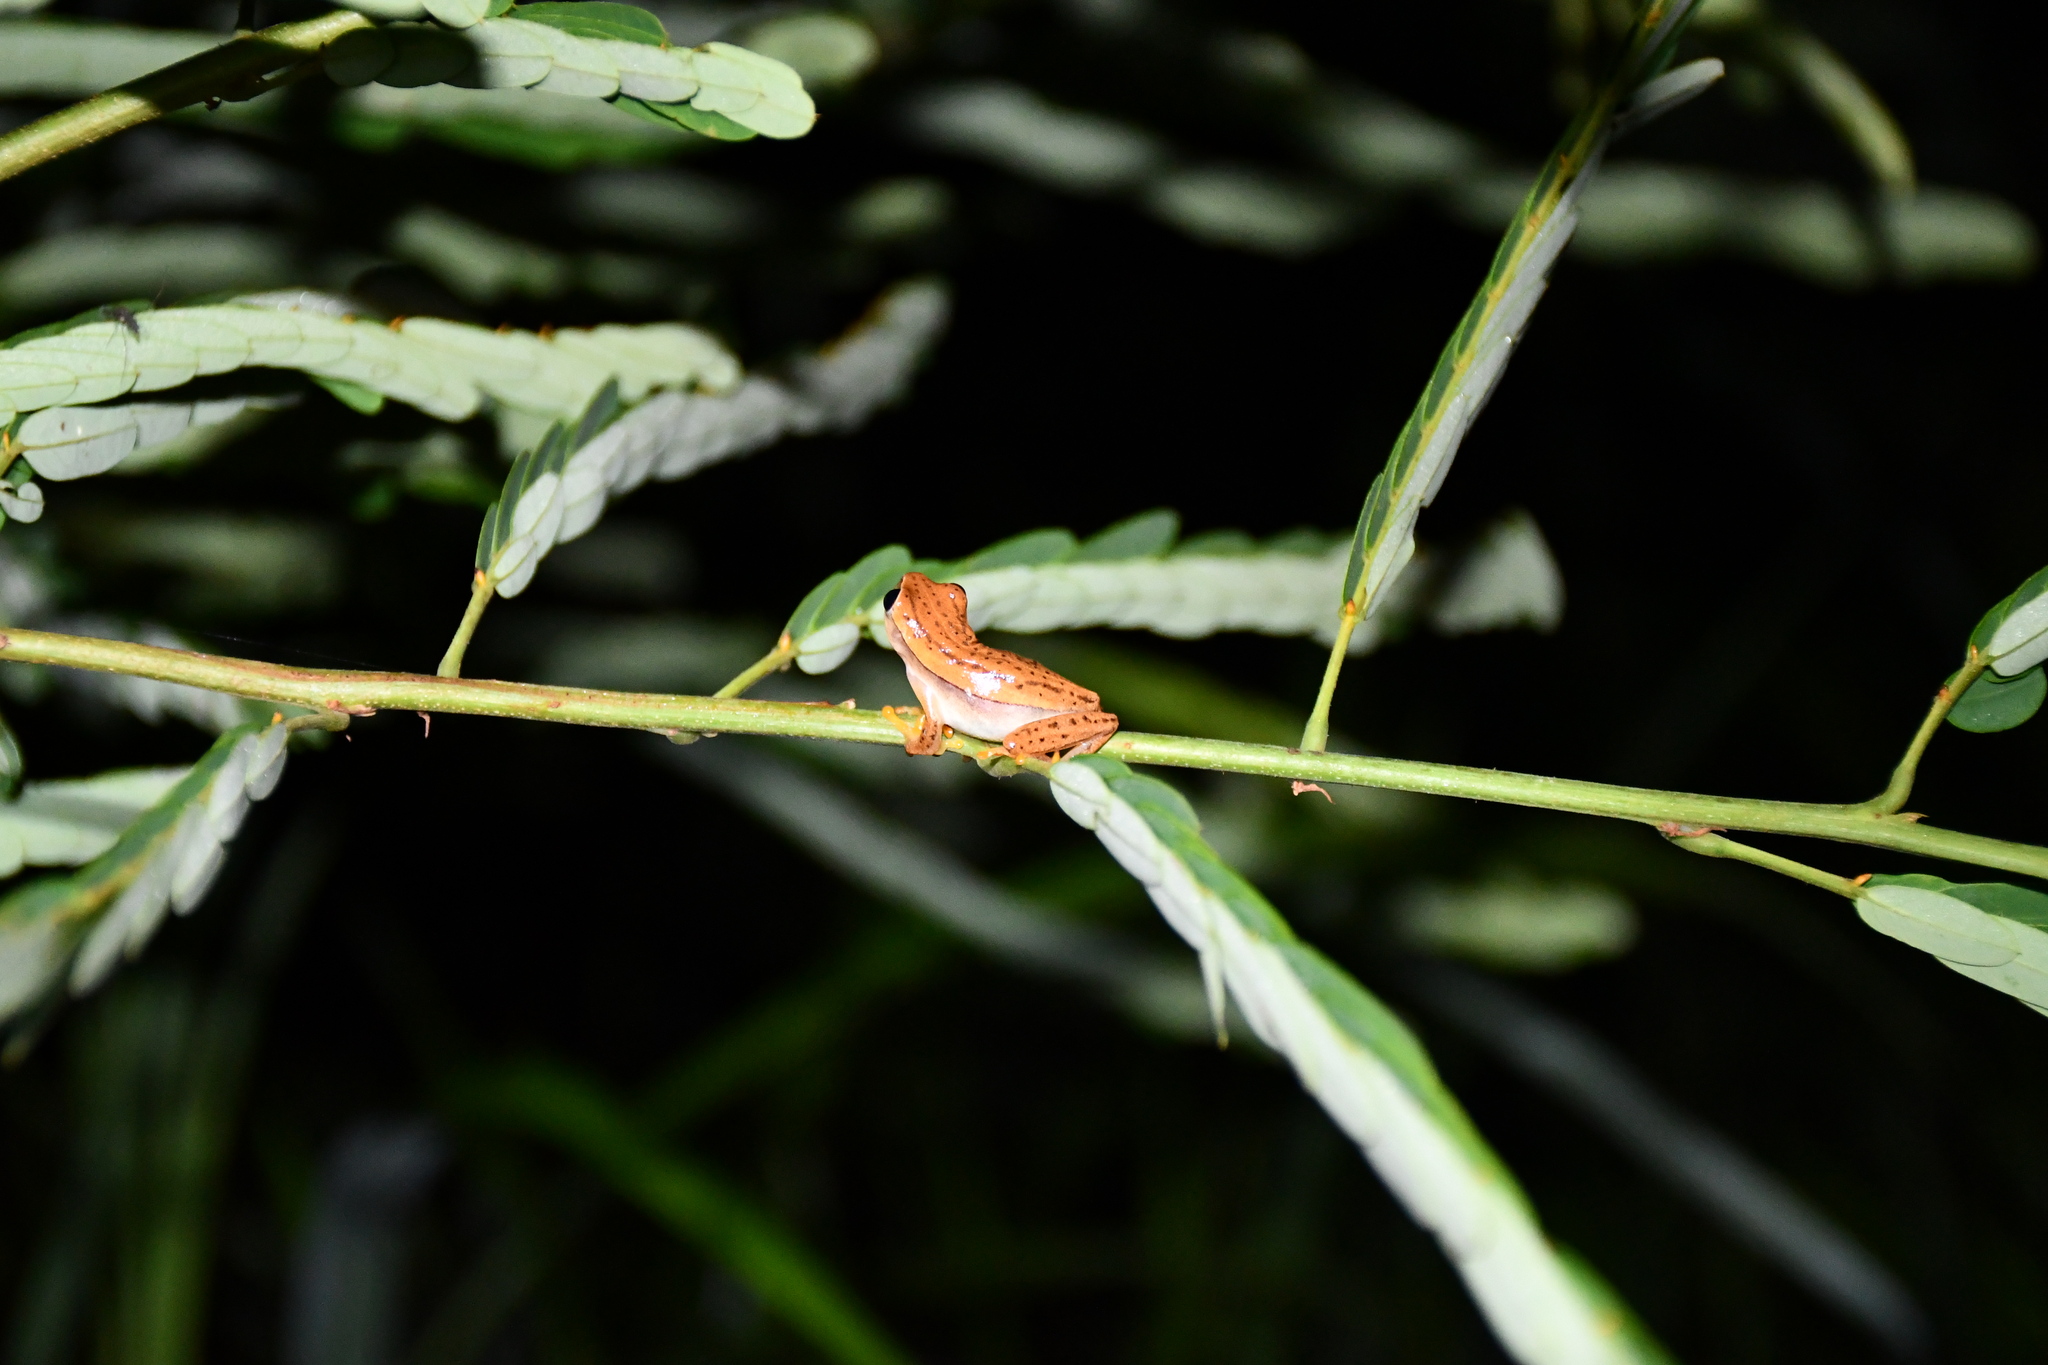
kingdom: Animalia
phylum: Chordata
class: Amphibia
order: Anura
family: Hylidae
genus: Dendropsophus
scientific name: Dendropsophus walfordi
